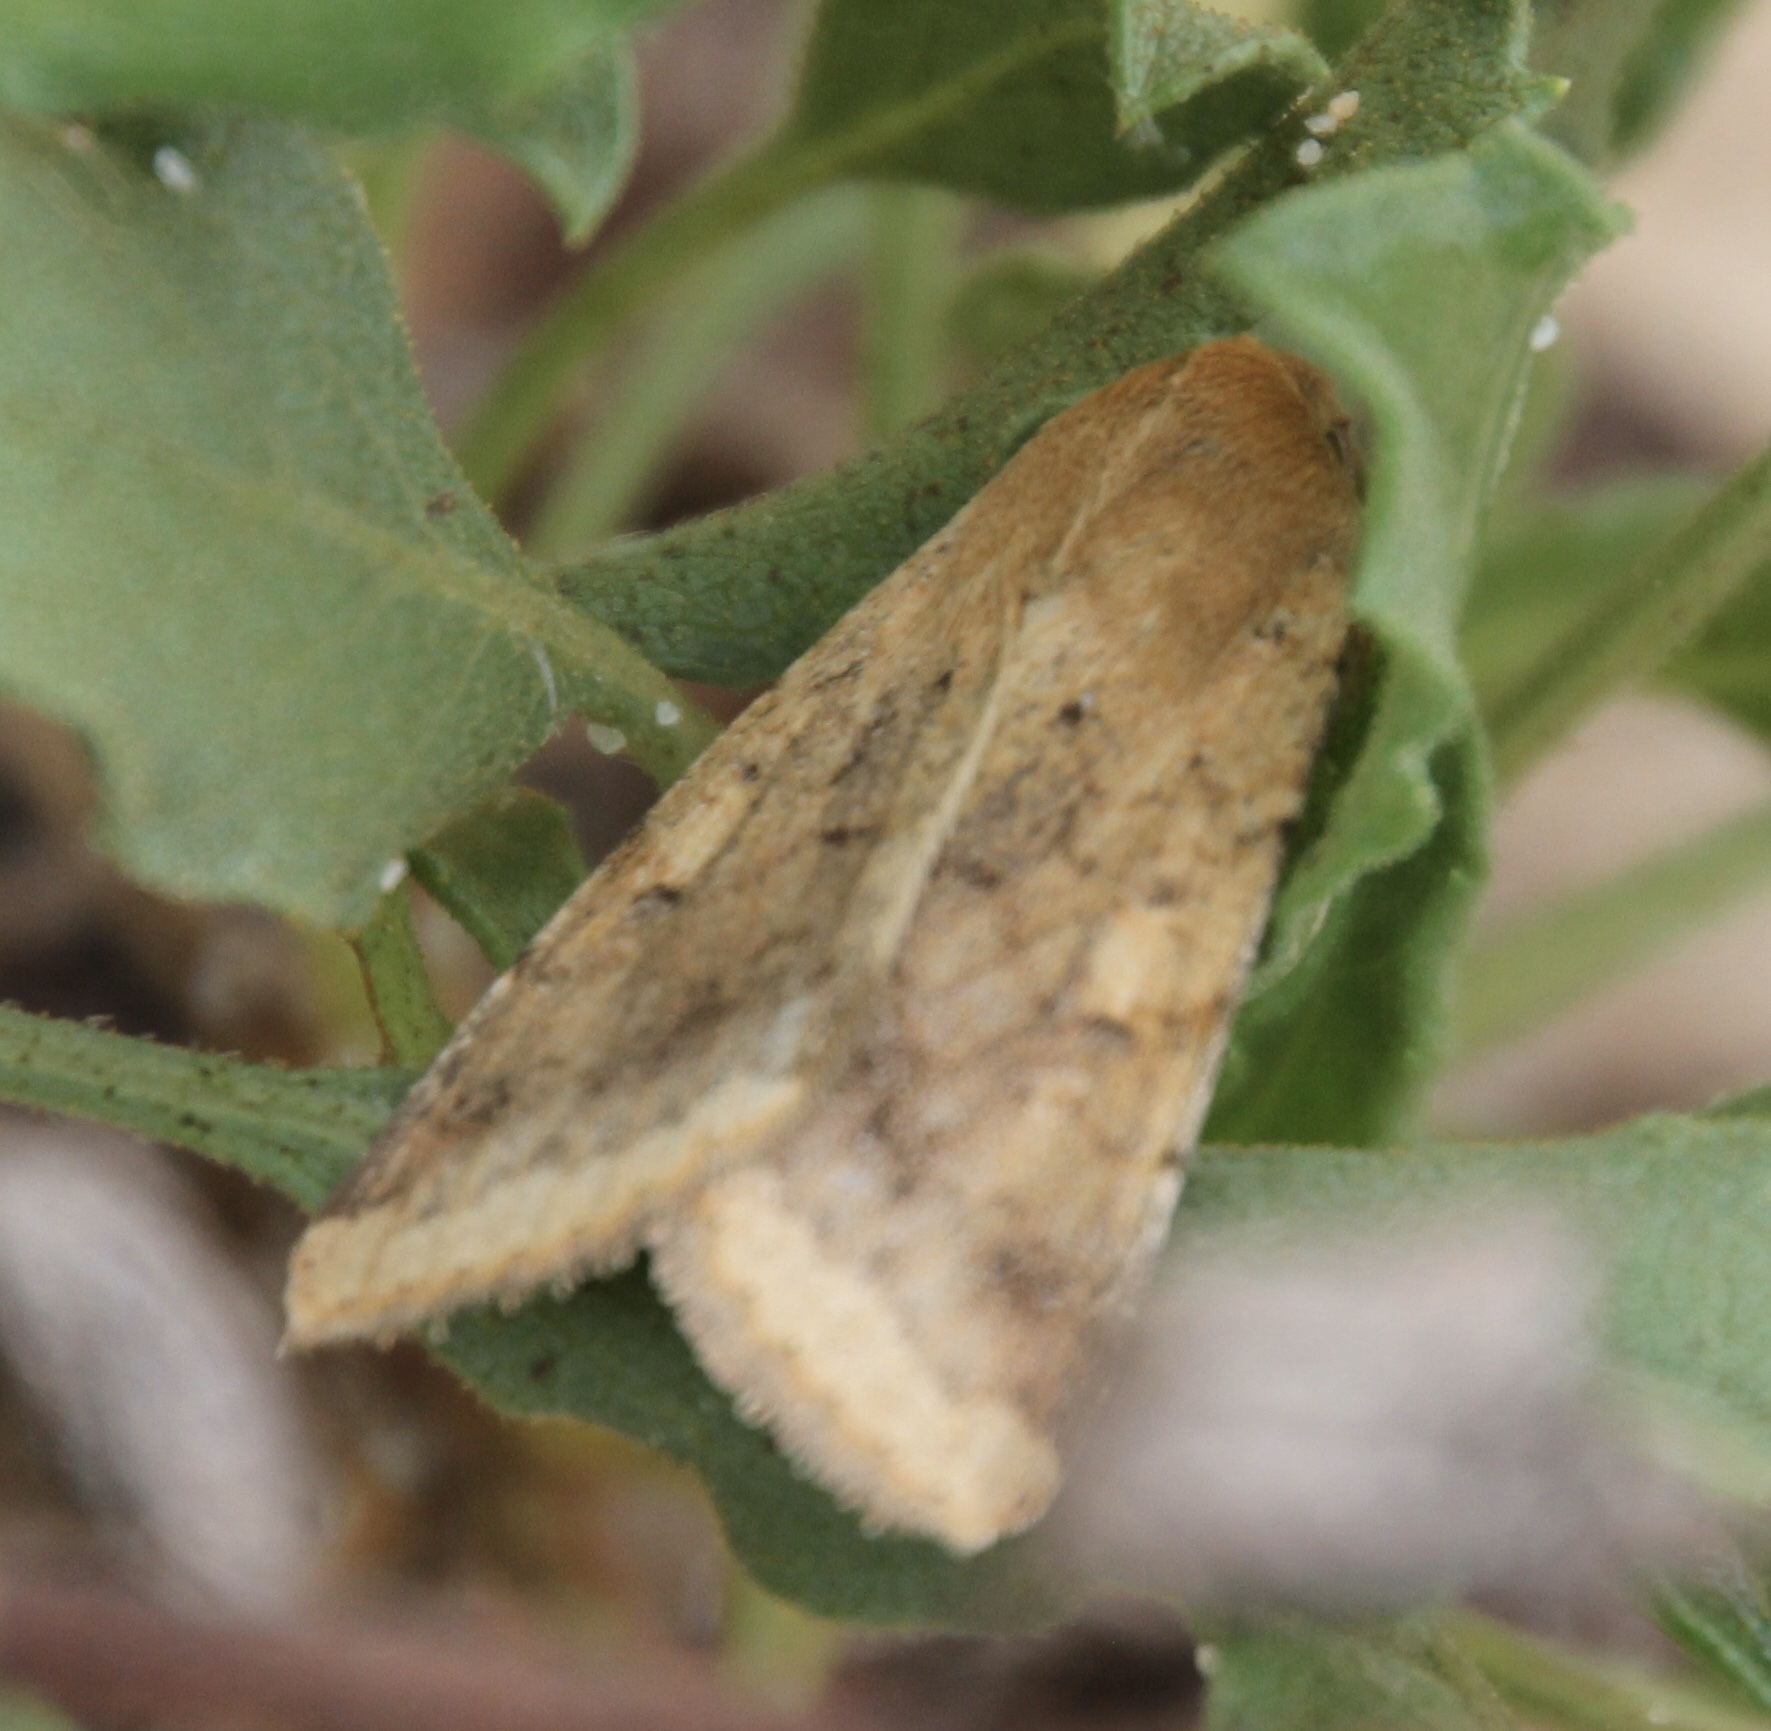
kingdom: Animalia
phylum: Arthropoda
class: Insecta
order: Lepidoptera
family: Noctuidae
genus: Helicoverpa
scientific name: Helicoverpa zea
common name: Bollworm
